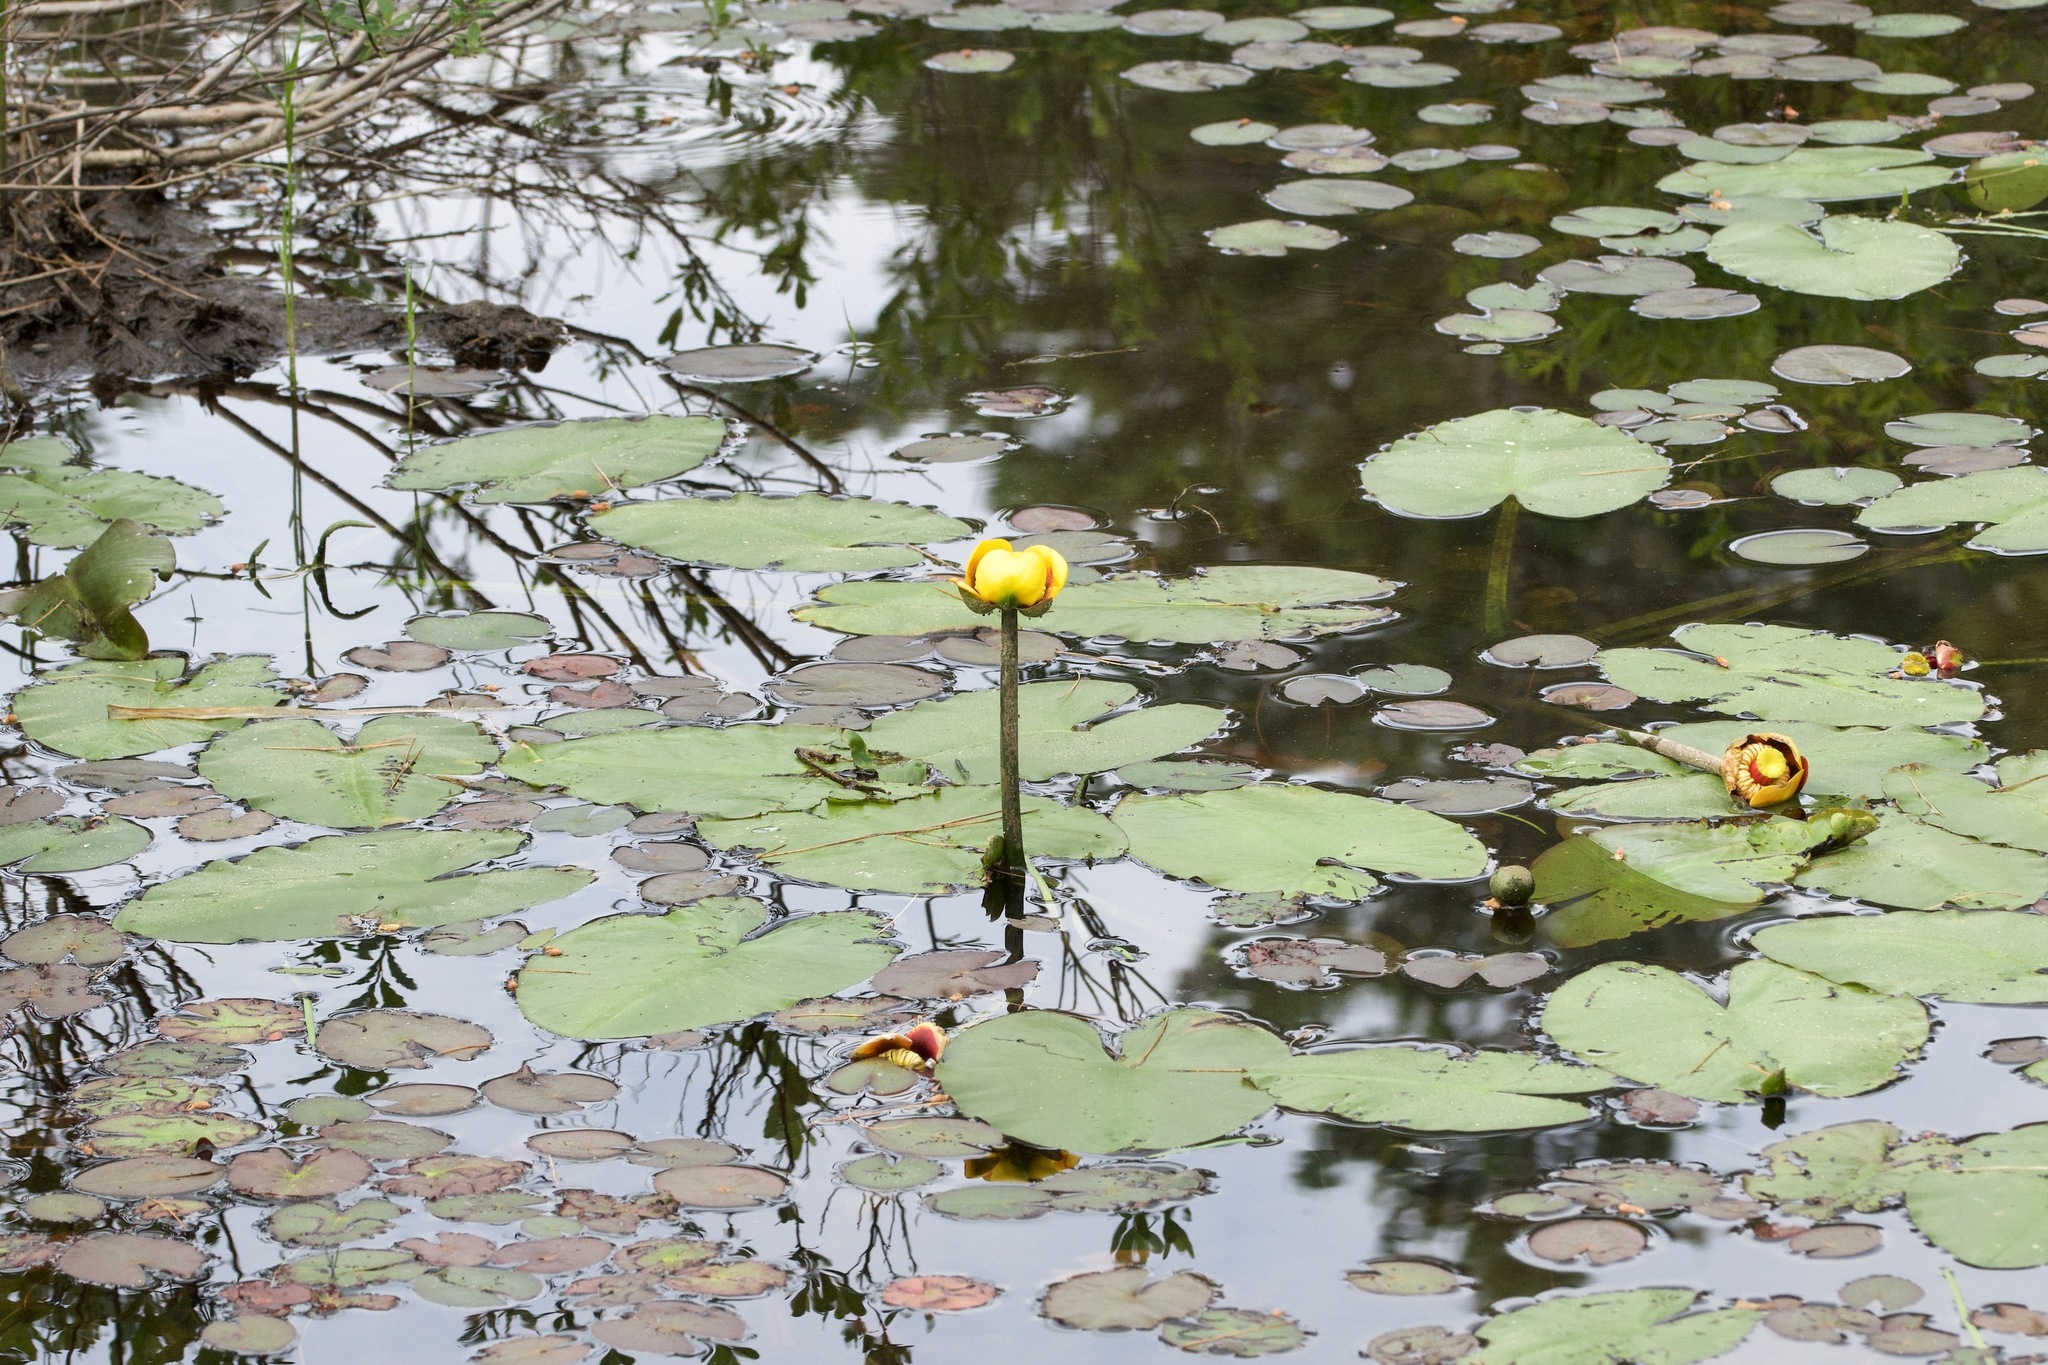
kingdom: Plantae
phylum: Tracheophyta
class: Magnoliopsida
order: Nymphaeales
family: Nymphaeaceae
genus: Nuphar
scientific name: Nuphar variegata
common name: Beaver-root
